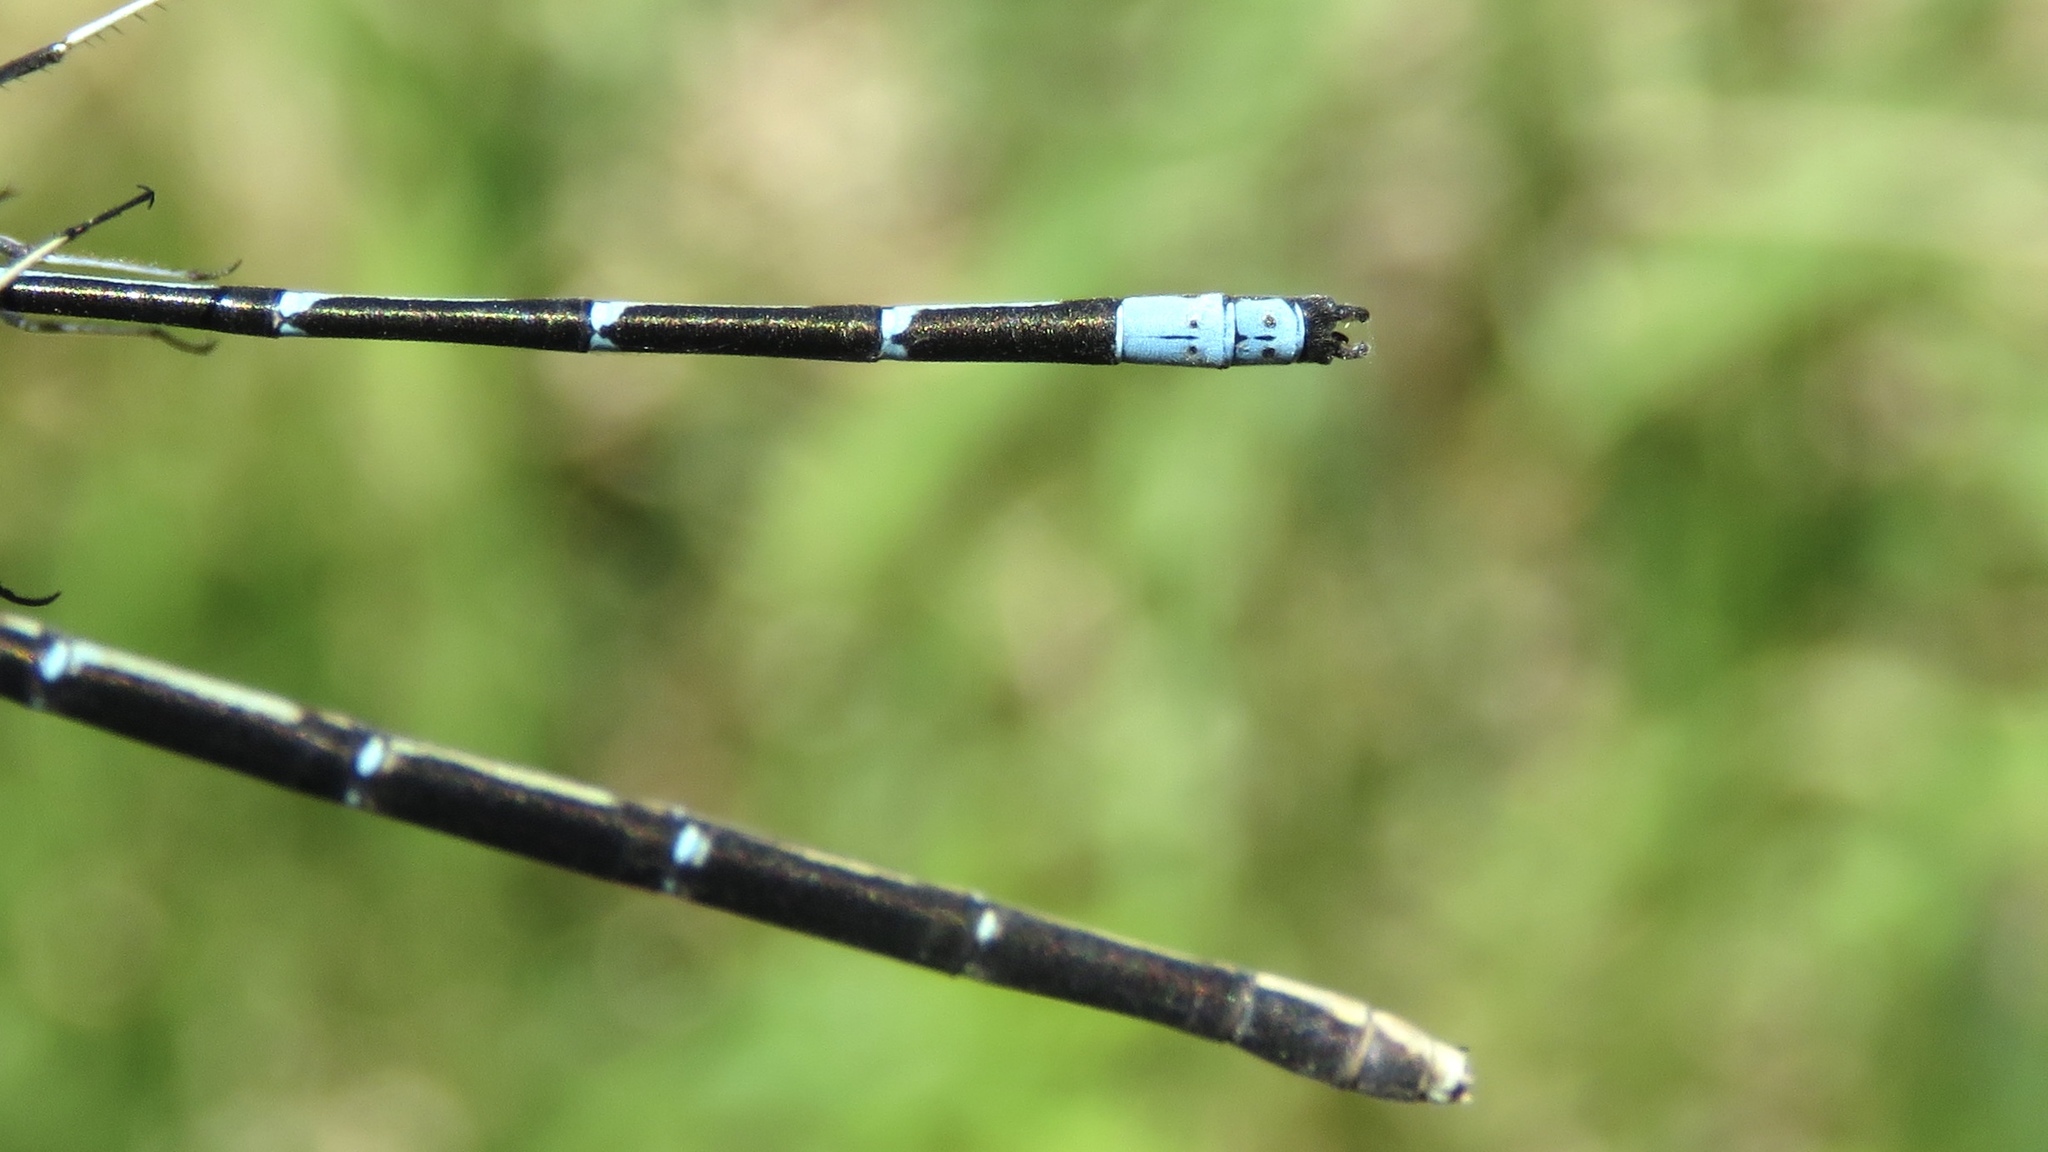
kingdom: Animalia
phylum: Arthropoda
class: Insecta
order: Odonata
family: Coenagrionidae
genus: Chromagrion
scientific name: Chromagrion conditum
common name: Aurora damsel
